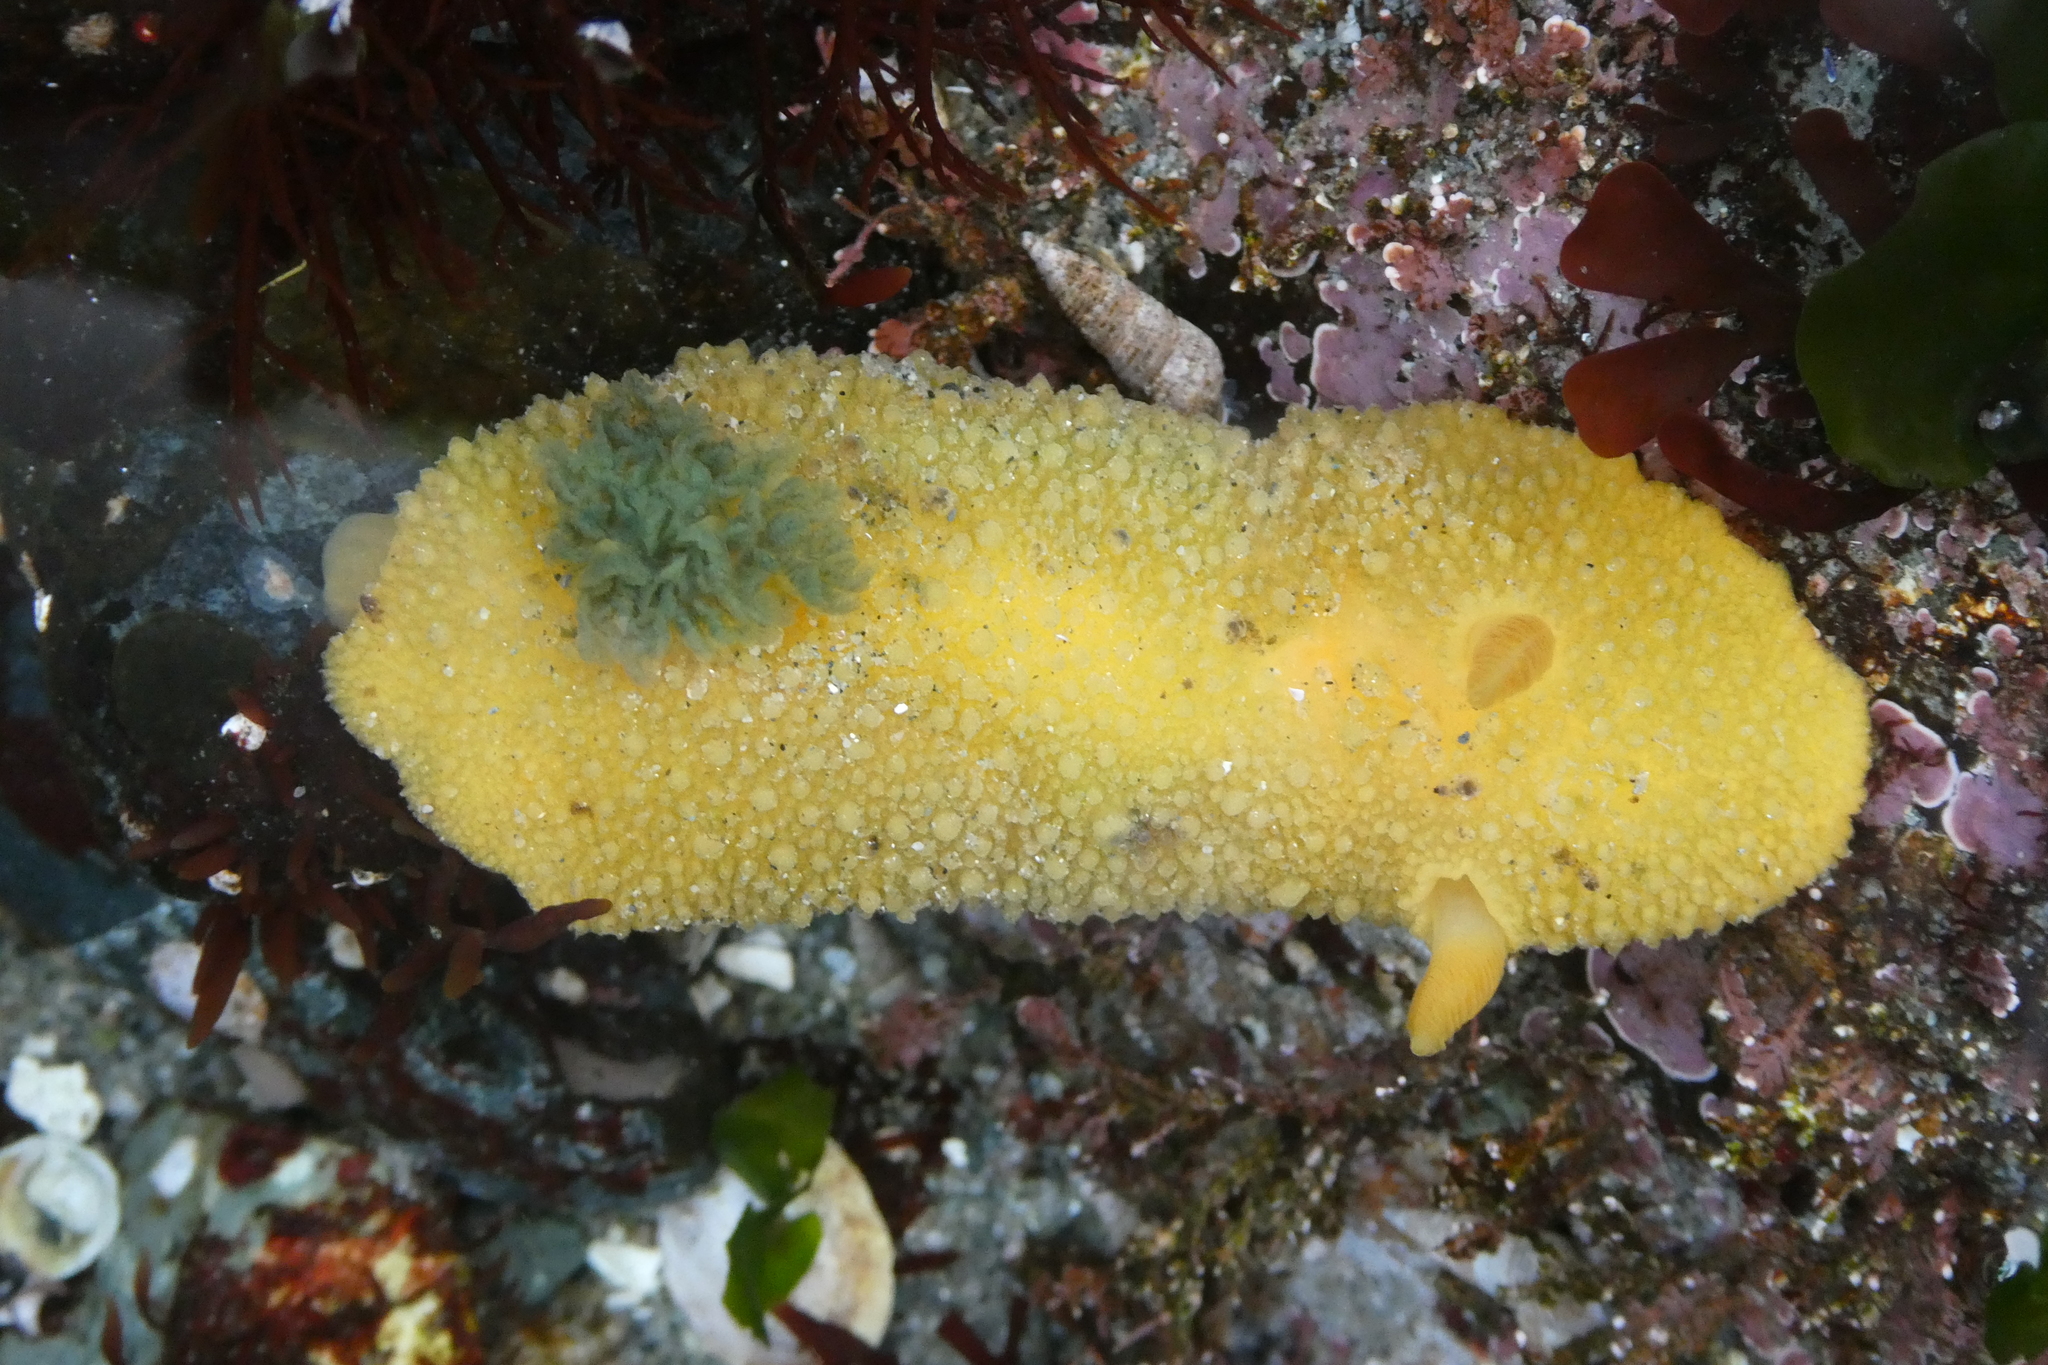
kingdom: Animalia
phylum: Mollusca
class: Gastropoda
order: Nudibranchia
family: Dorididae
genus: Doris
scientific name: Doris montereyensis
